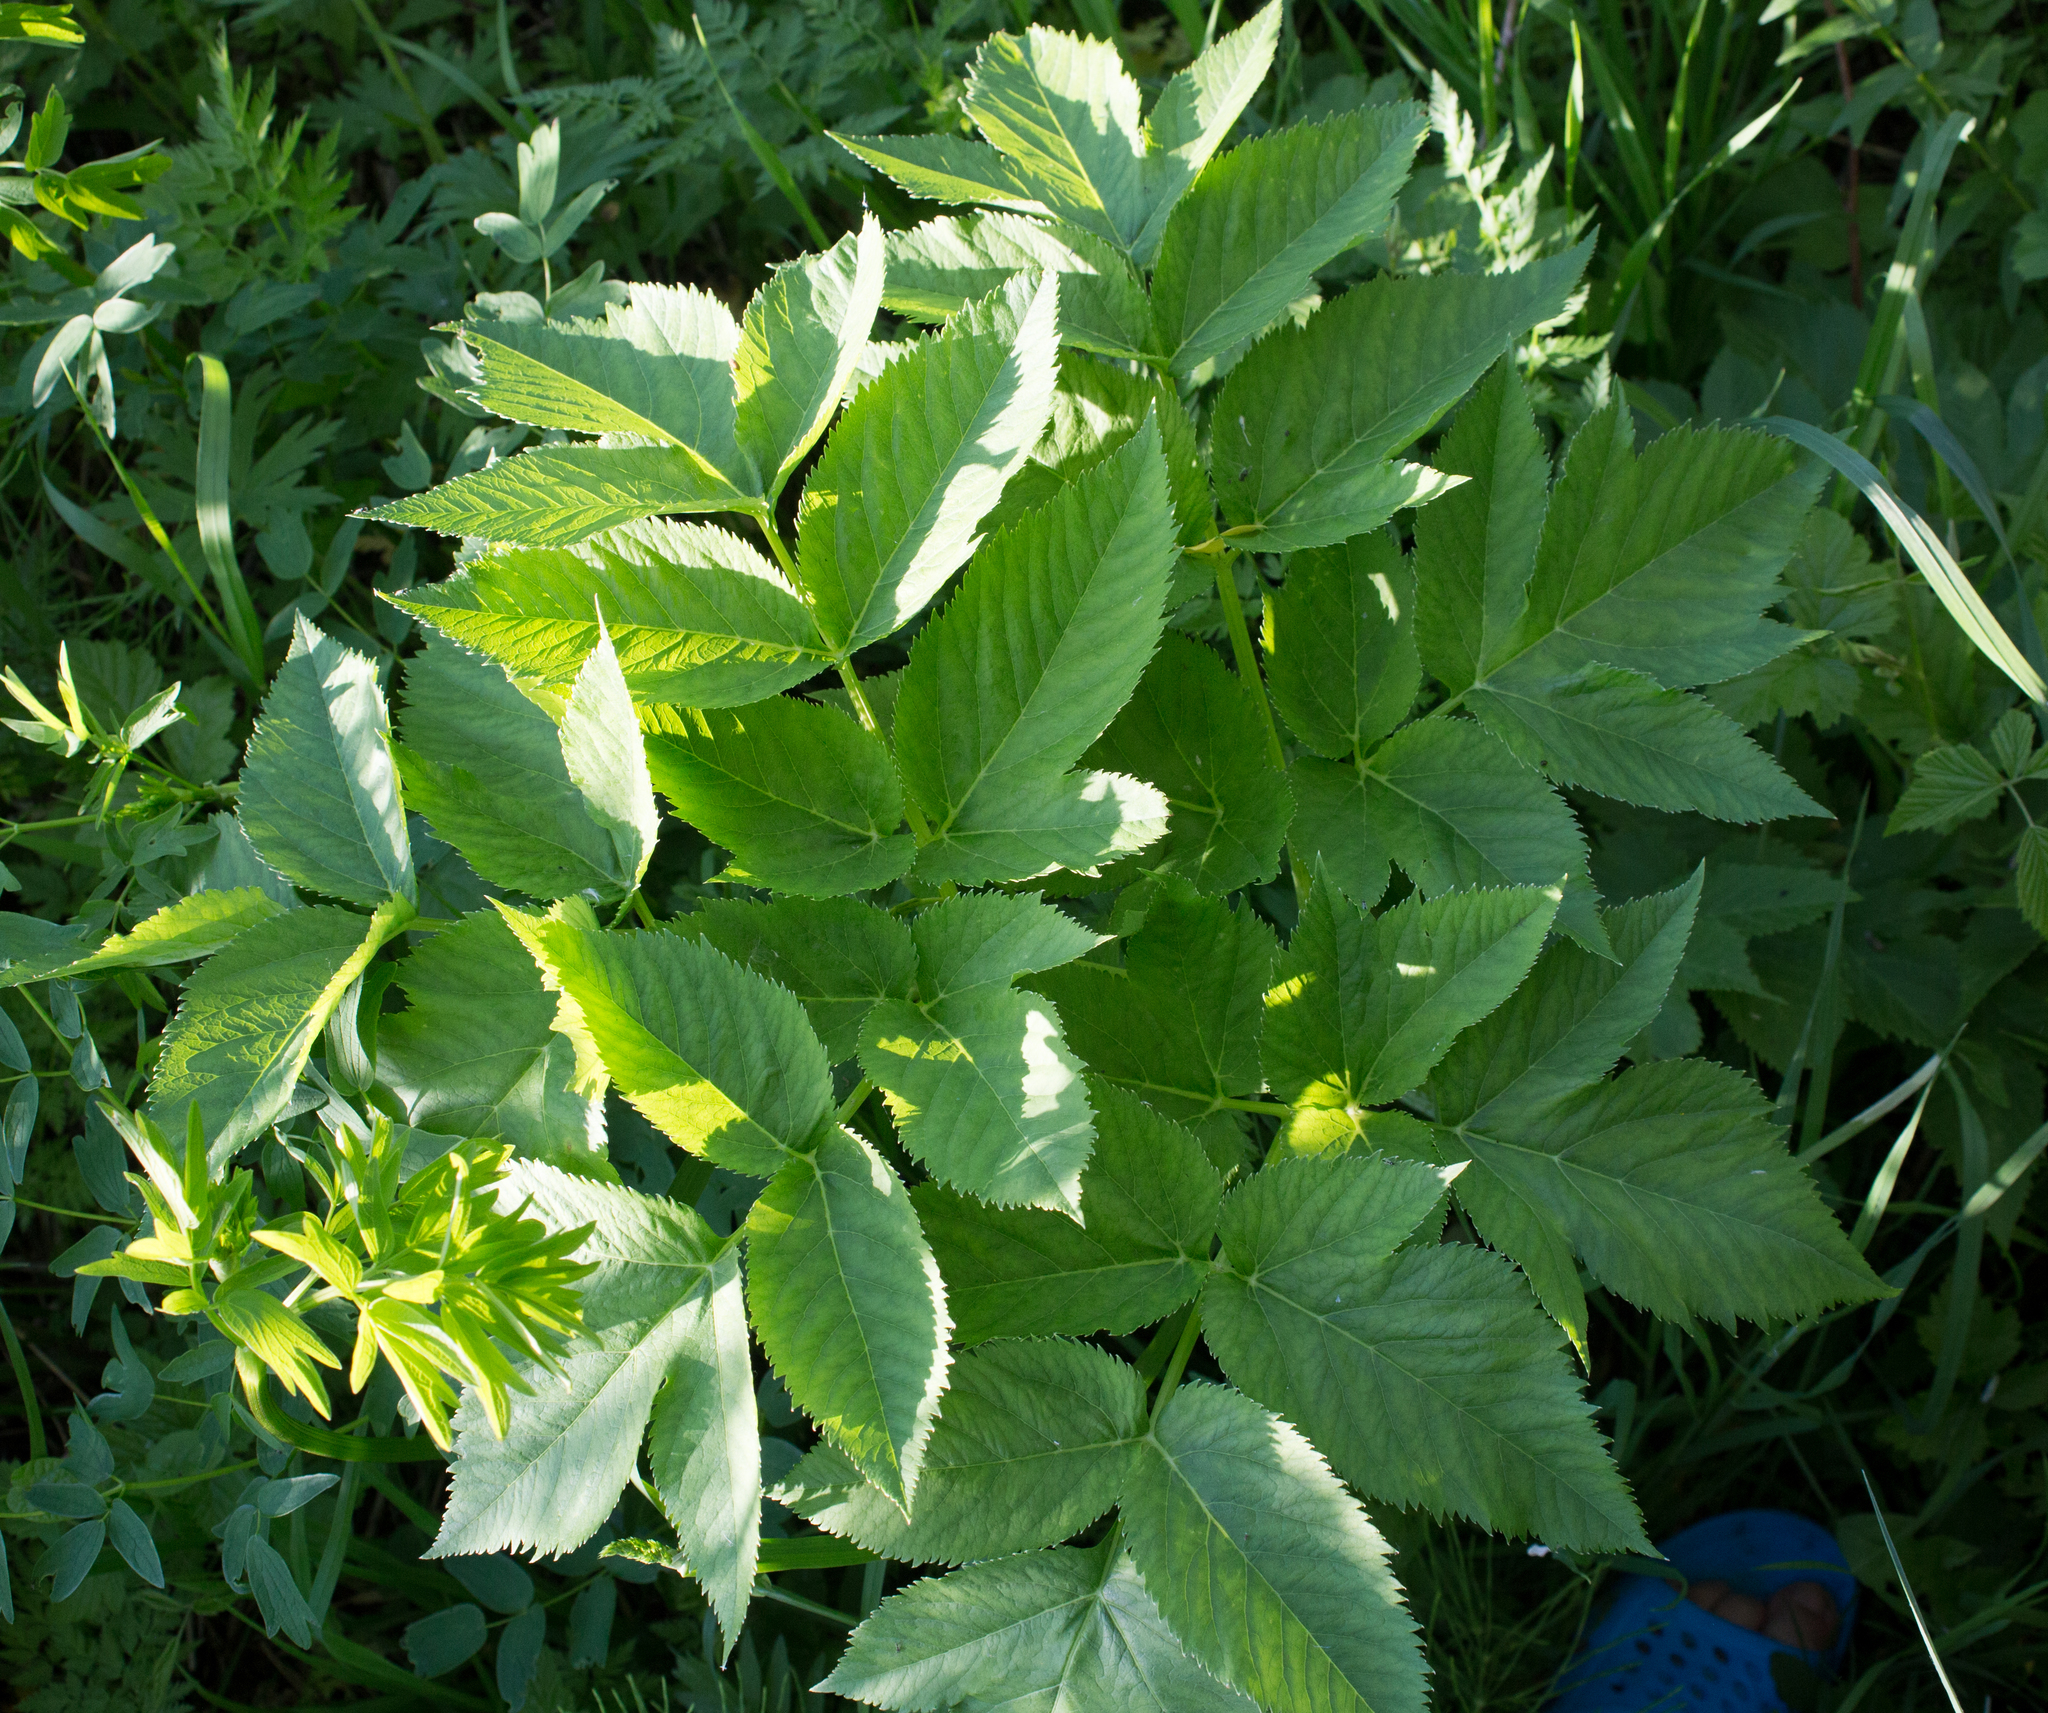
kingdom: Plantae
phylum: Tracheophyta
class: Magnoliopsida
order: Apiales
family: Apiaceae
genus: Angelica
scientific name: Angelica archangelica
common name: Garden angelica
